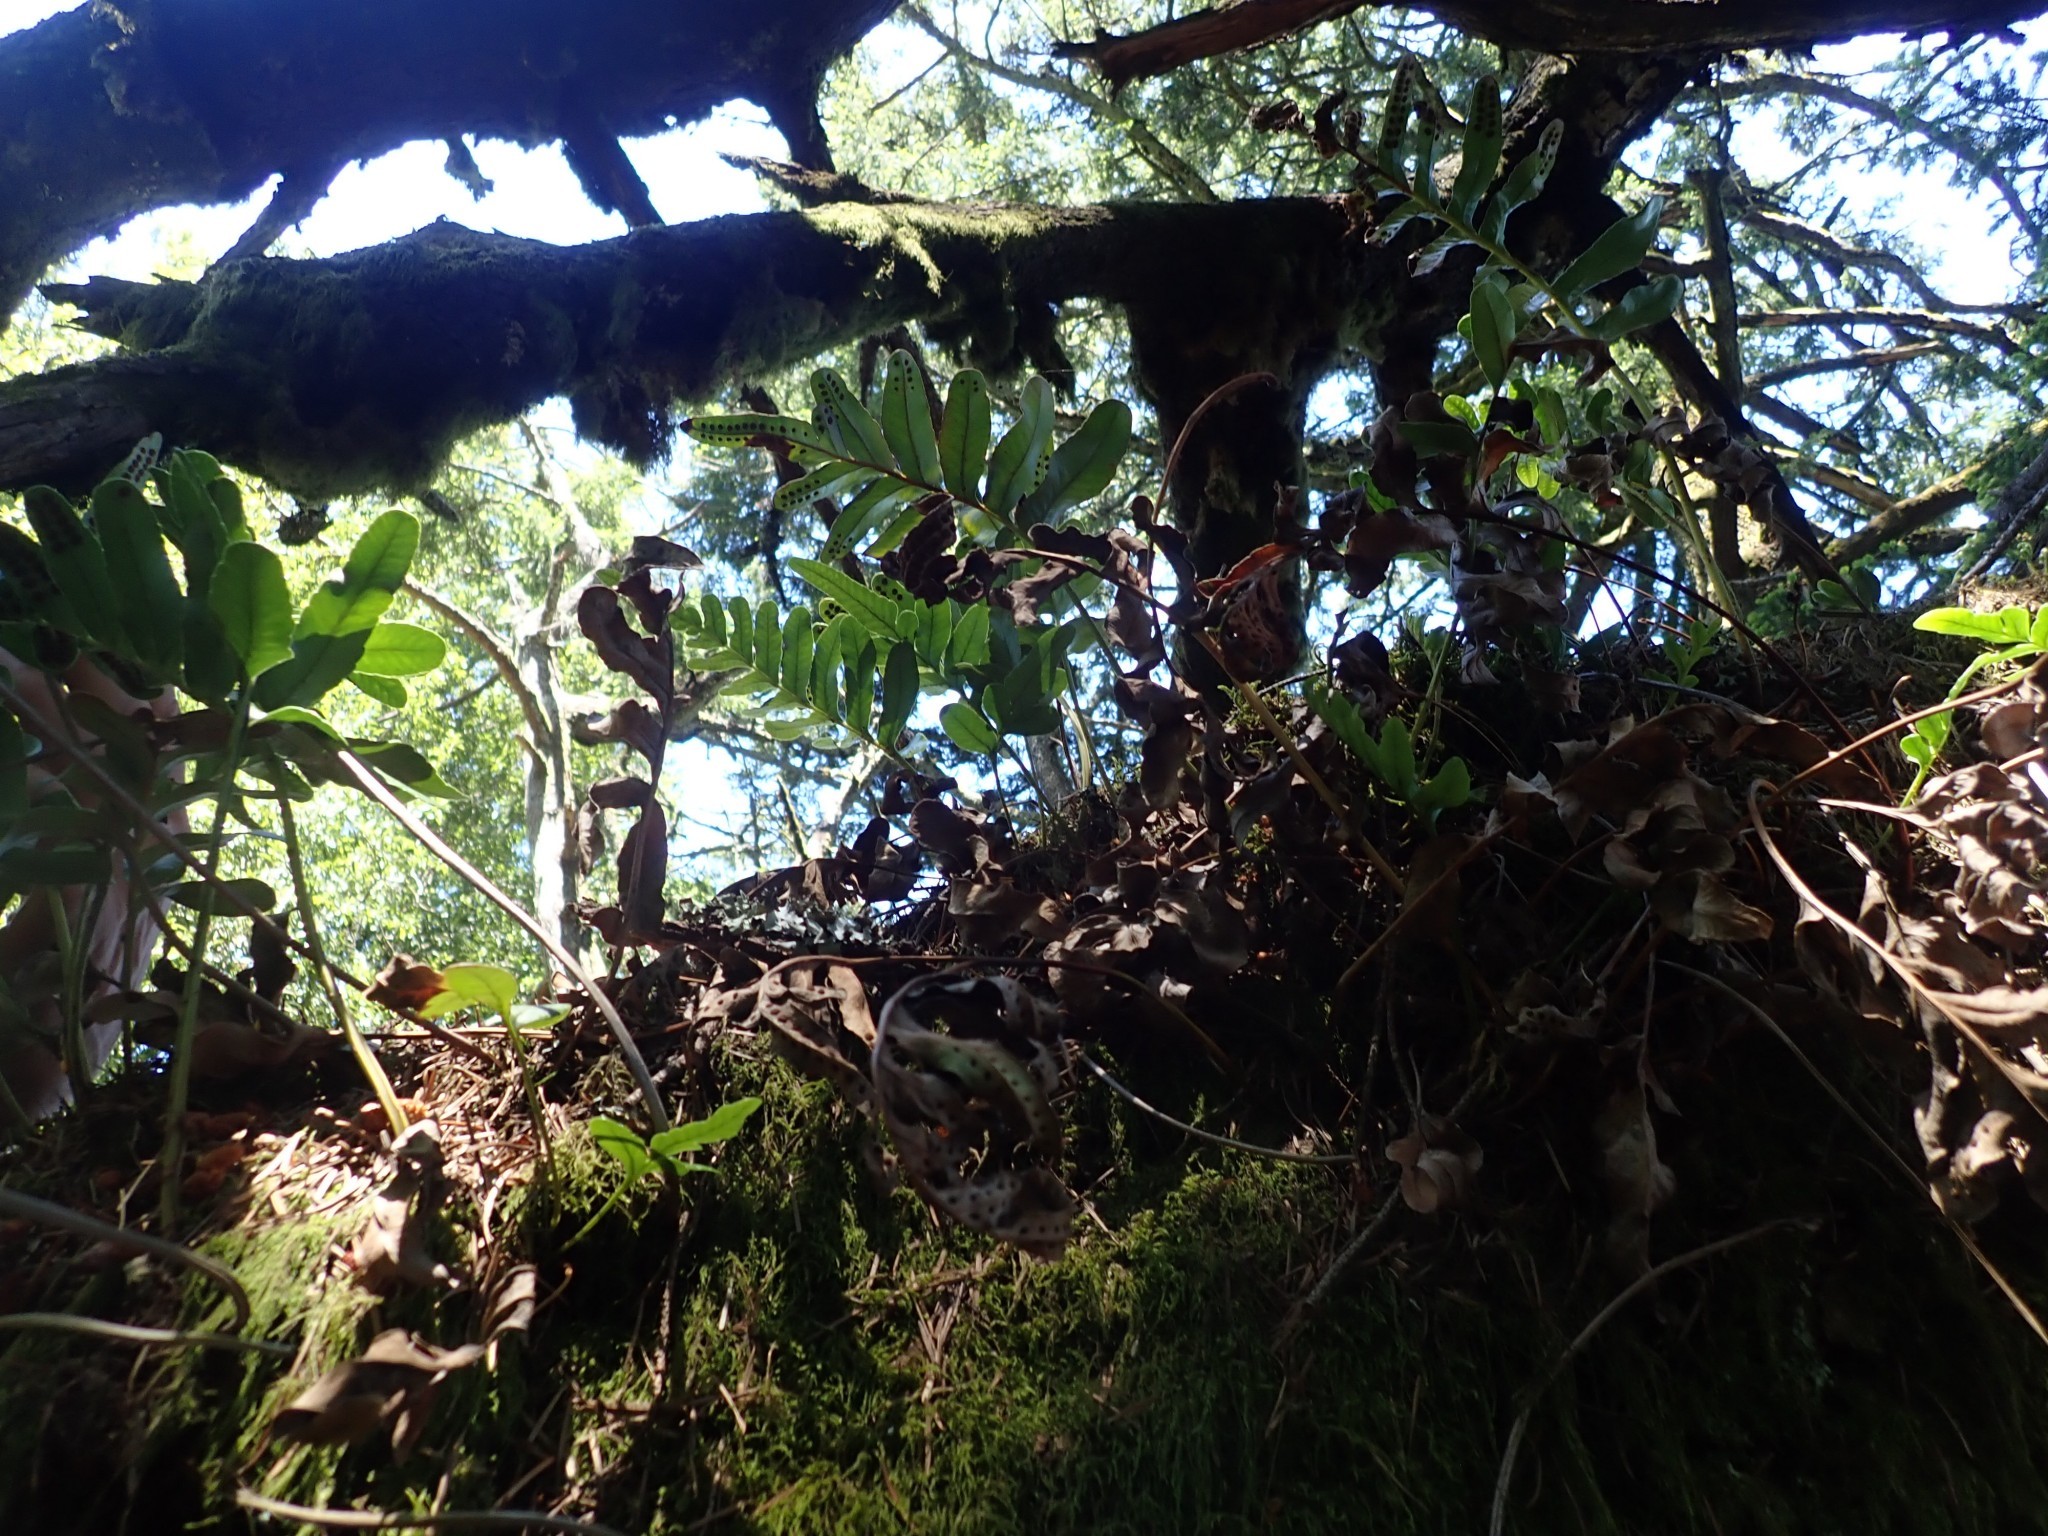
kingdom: Plantae
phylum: Tracheophyta
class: Polypodiopsida
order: Polypodiales
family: Polypodiaceae
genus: Polypodium
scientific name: Polypodium scouleri
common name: Scouler's polypody
